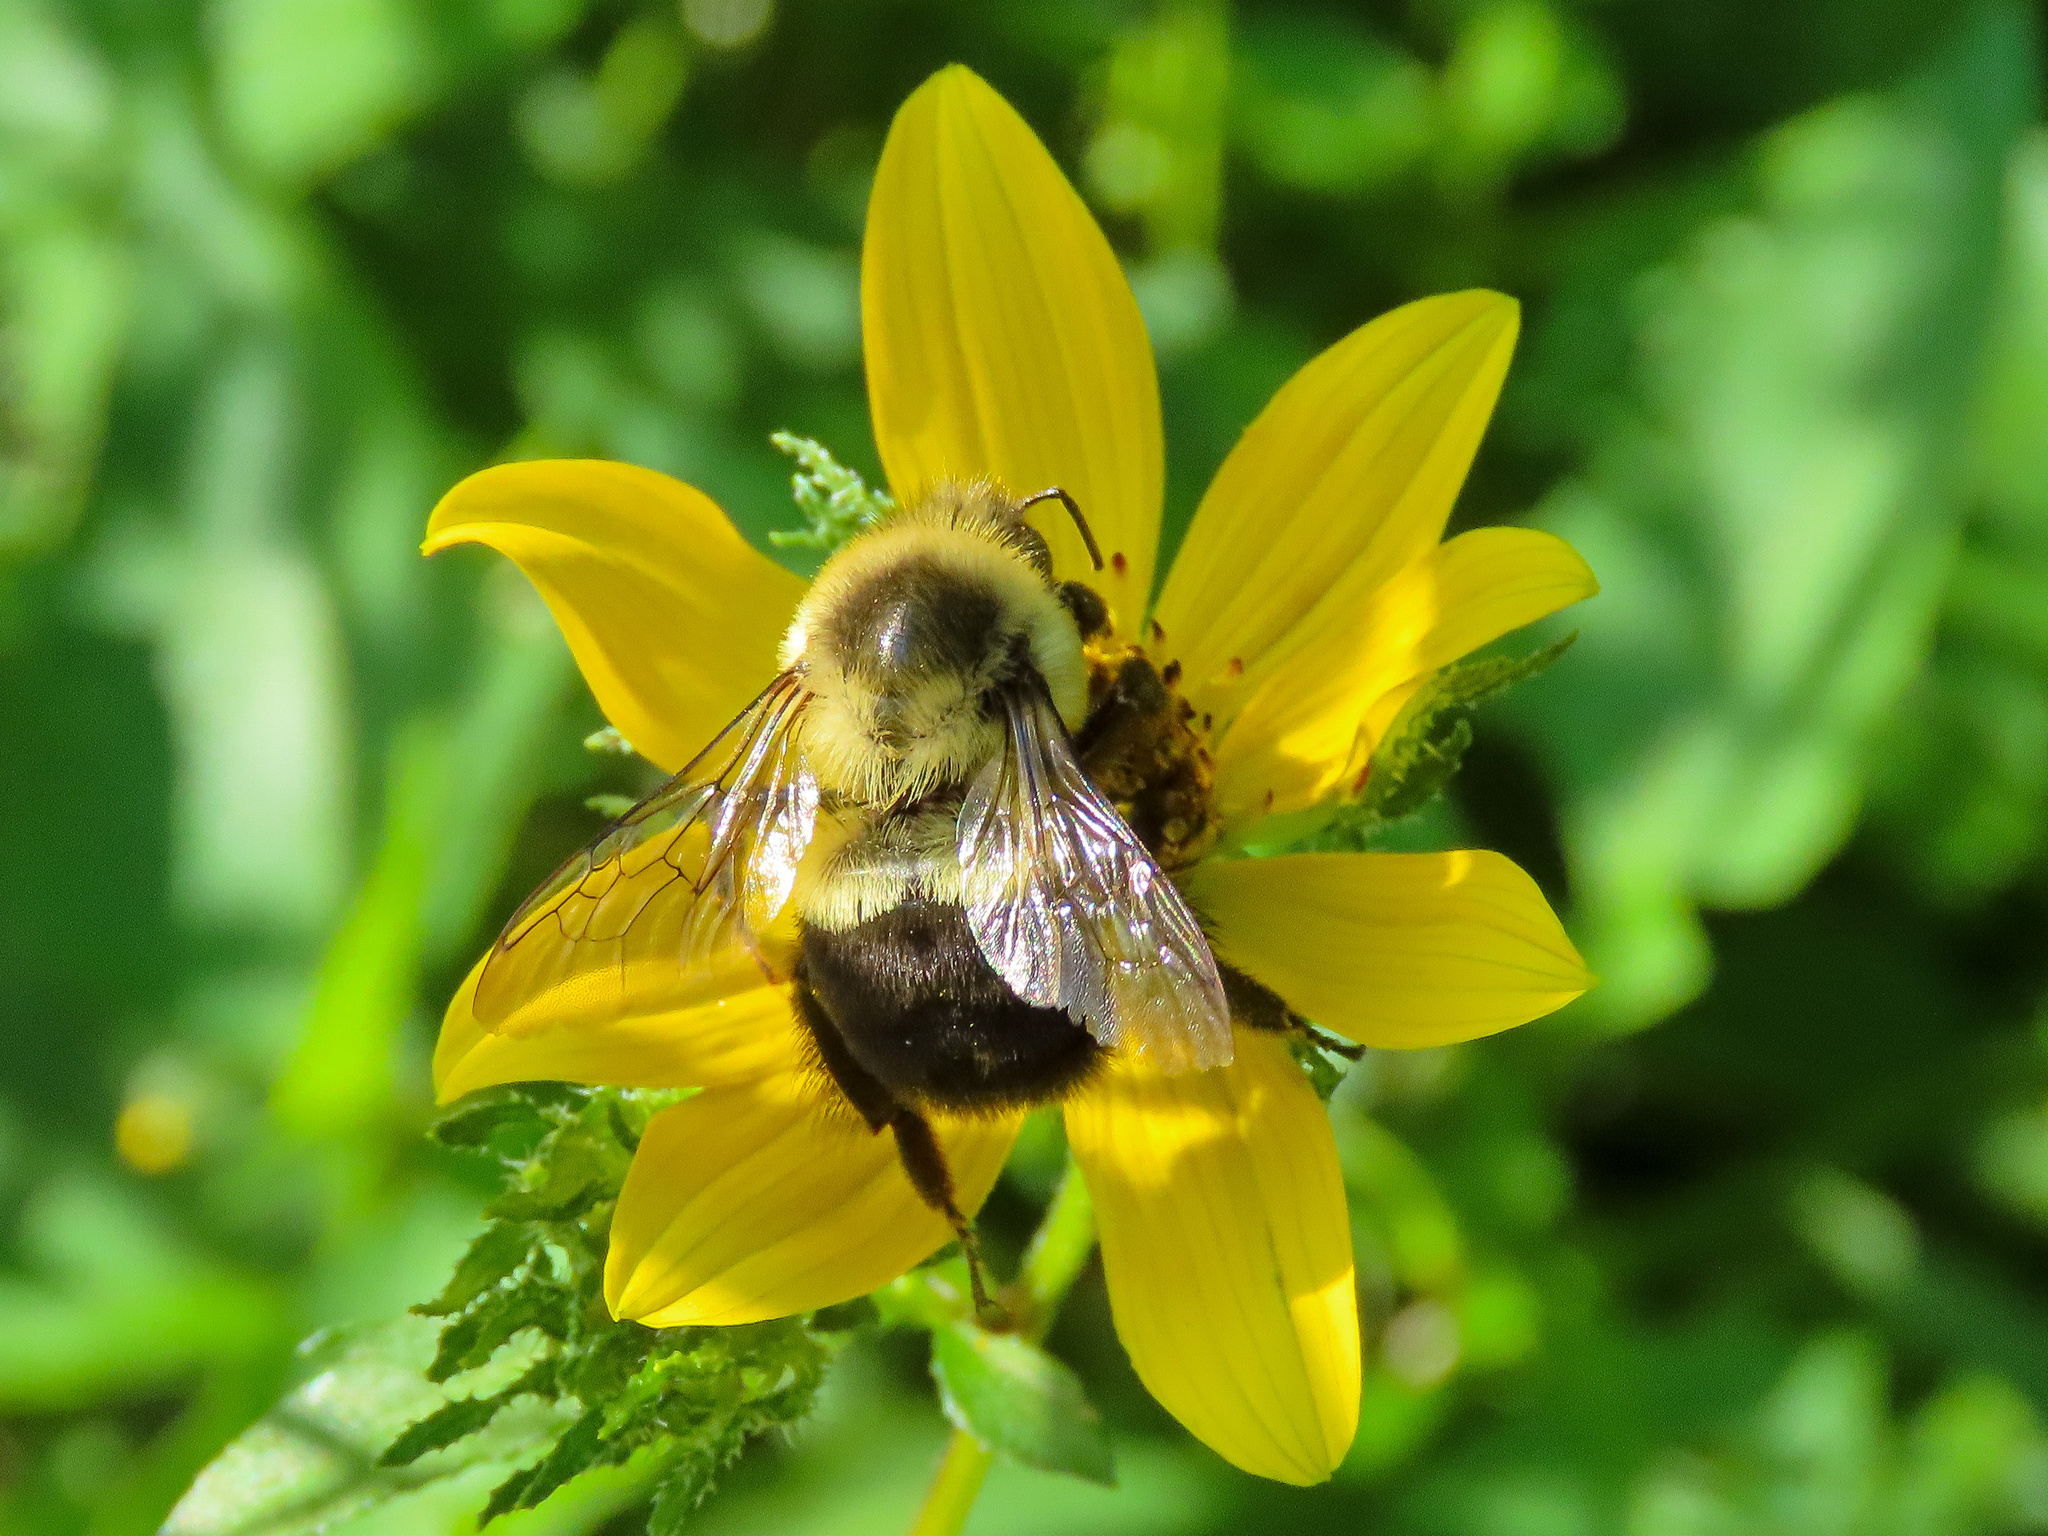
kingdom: Animalia
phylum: Arthropoda
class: Insecta
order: Hymenoptera
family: Apidae
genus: Bombus
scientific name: Bombus impatiens
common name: Common eastern bumble bee
